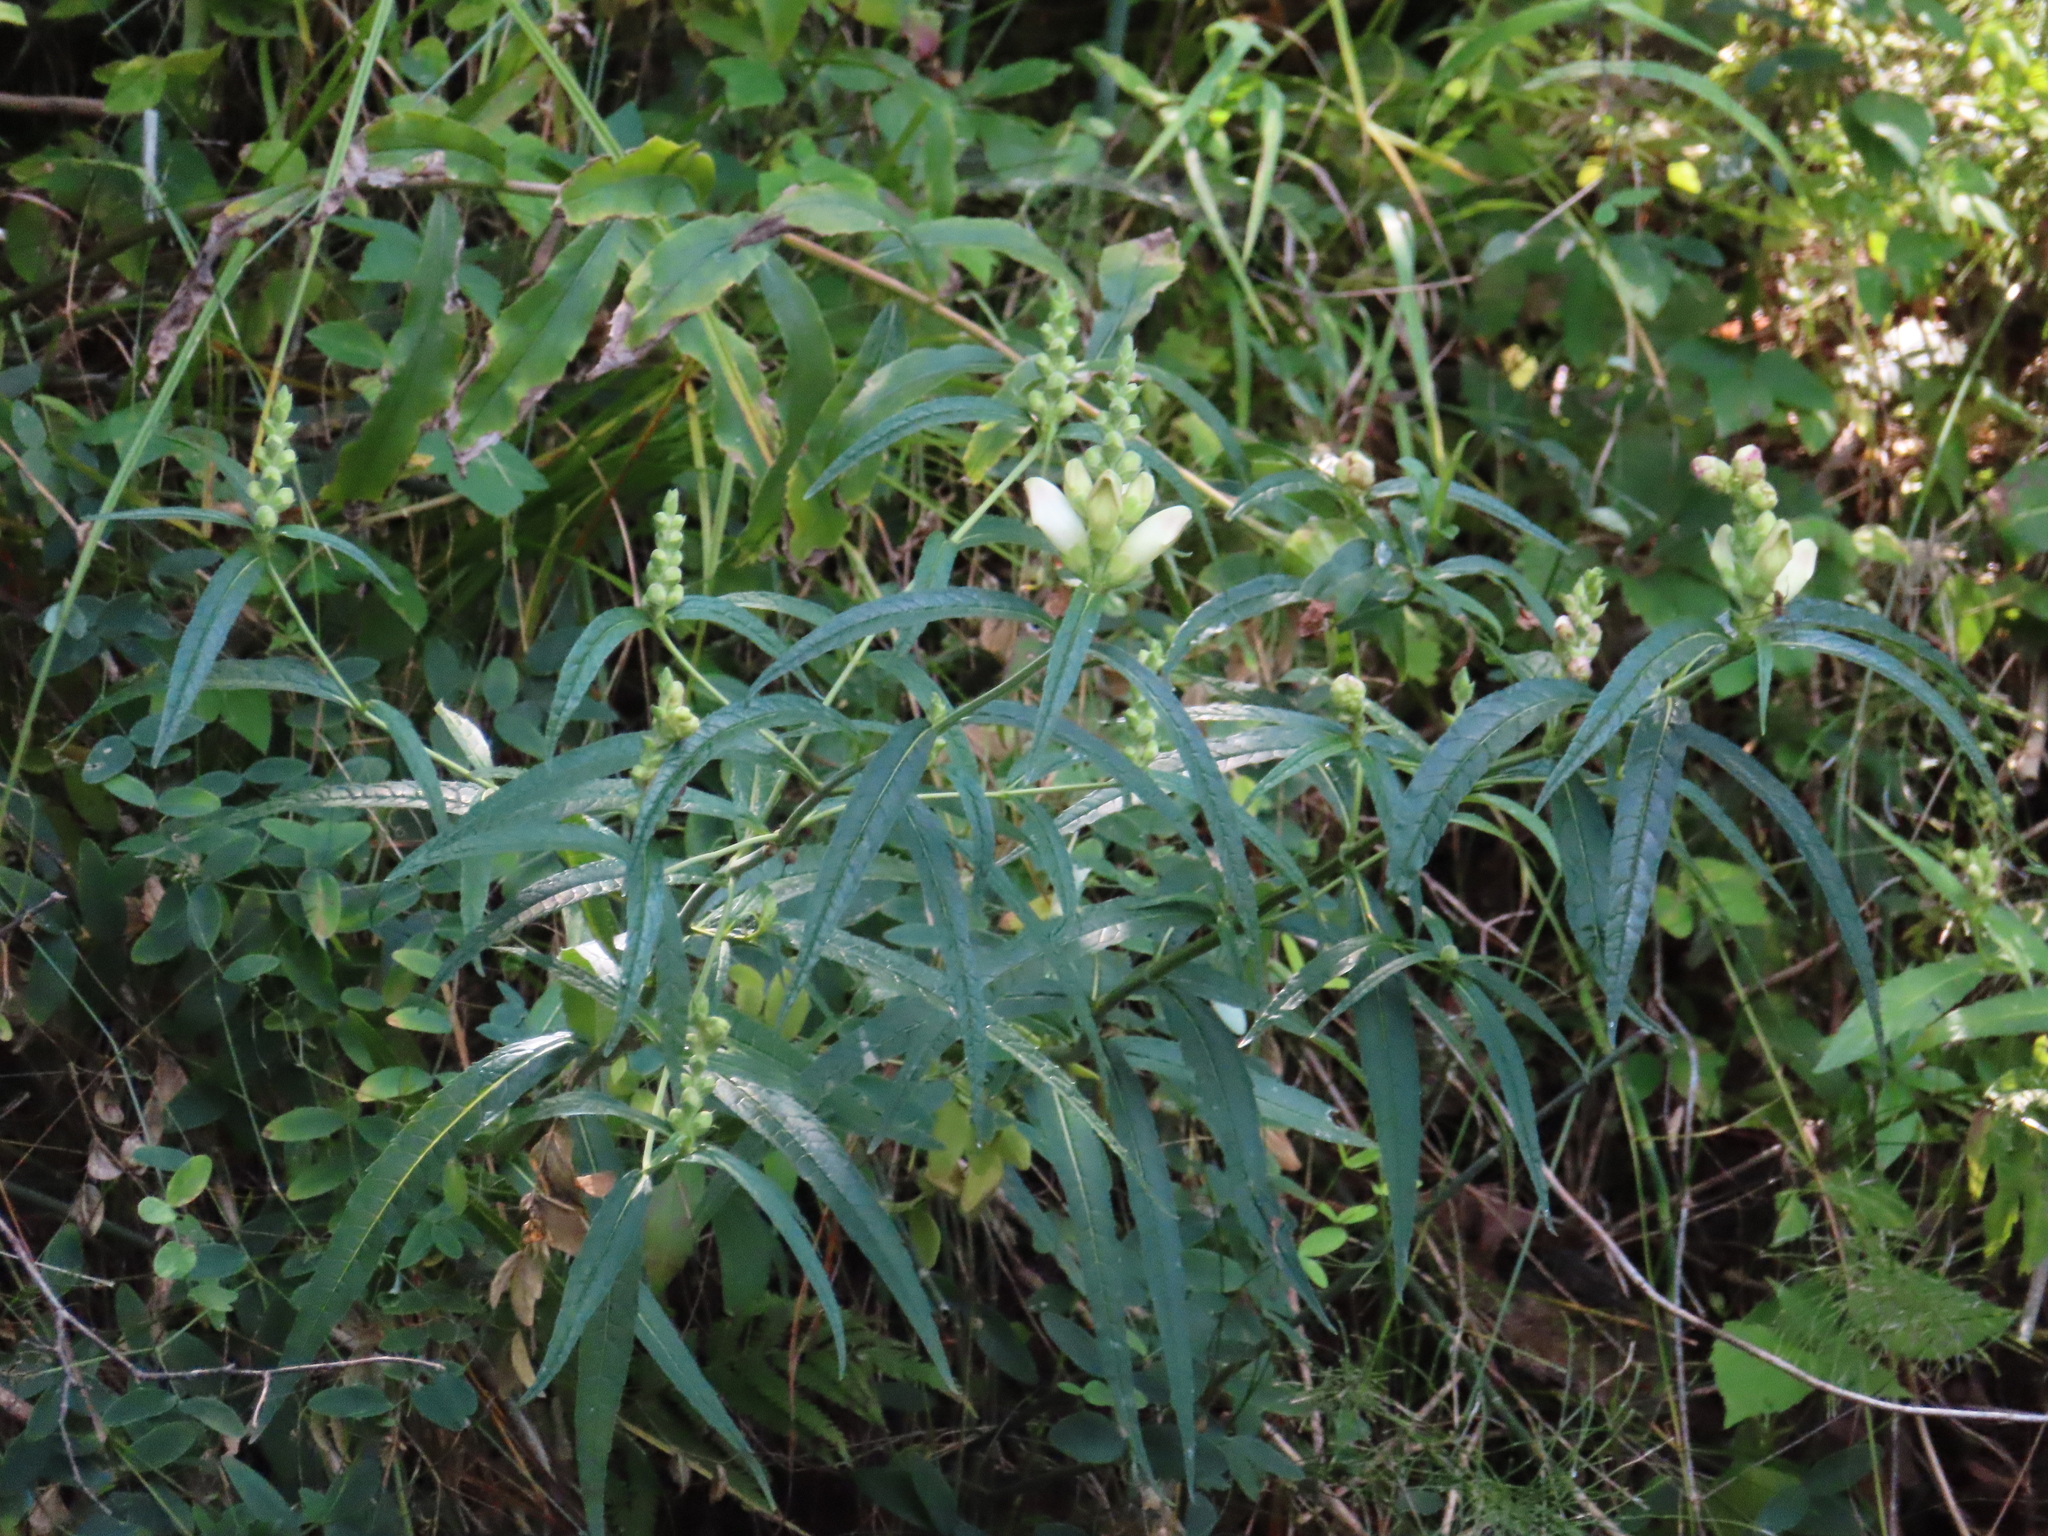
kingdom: Plantae
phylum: Tracheophyta
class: Magnoliopsida
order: Lamiales
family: Plantaginaceae
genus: Chelone
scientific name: Chelone glabra
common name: Snakehead
